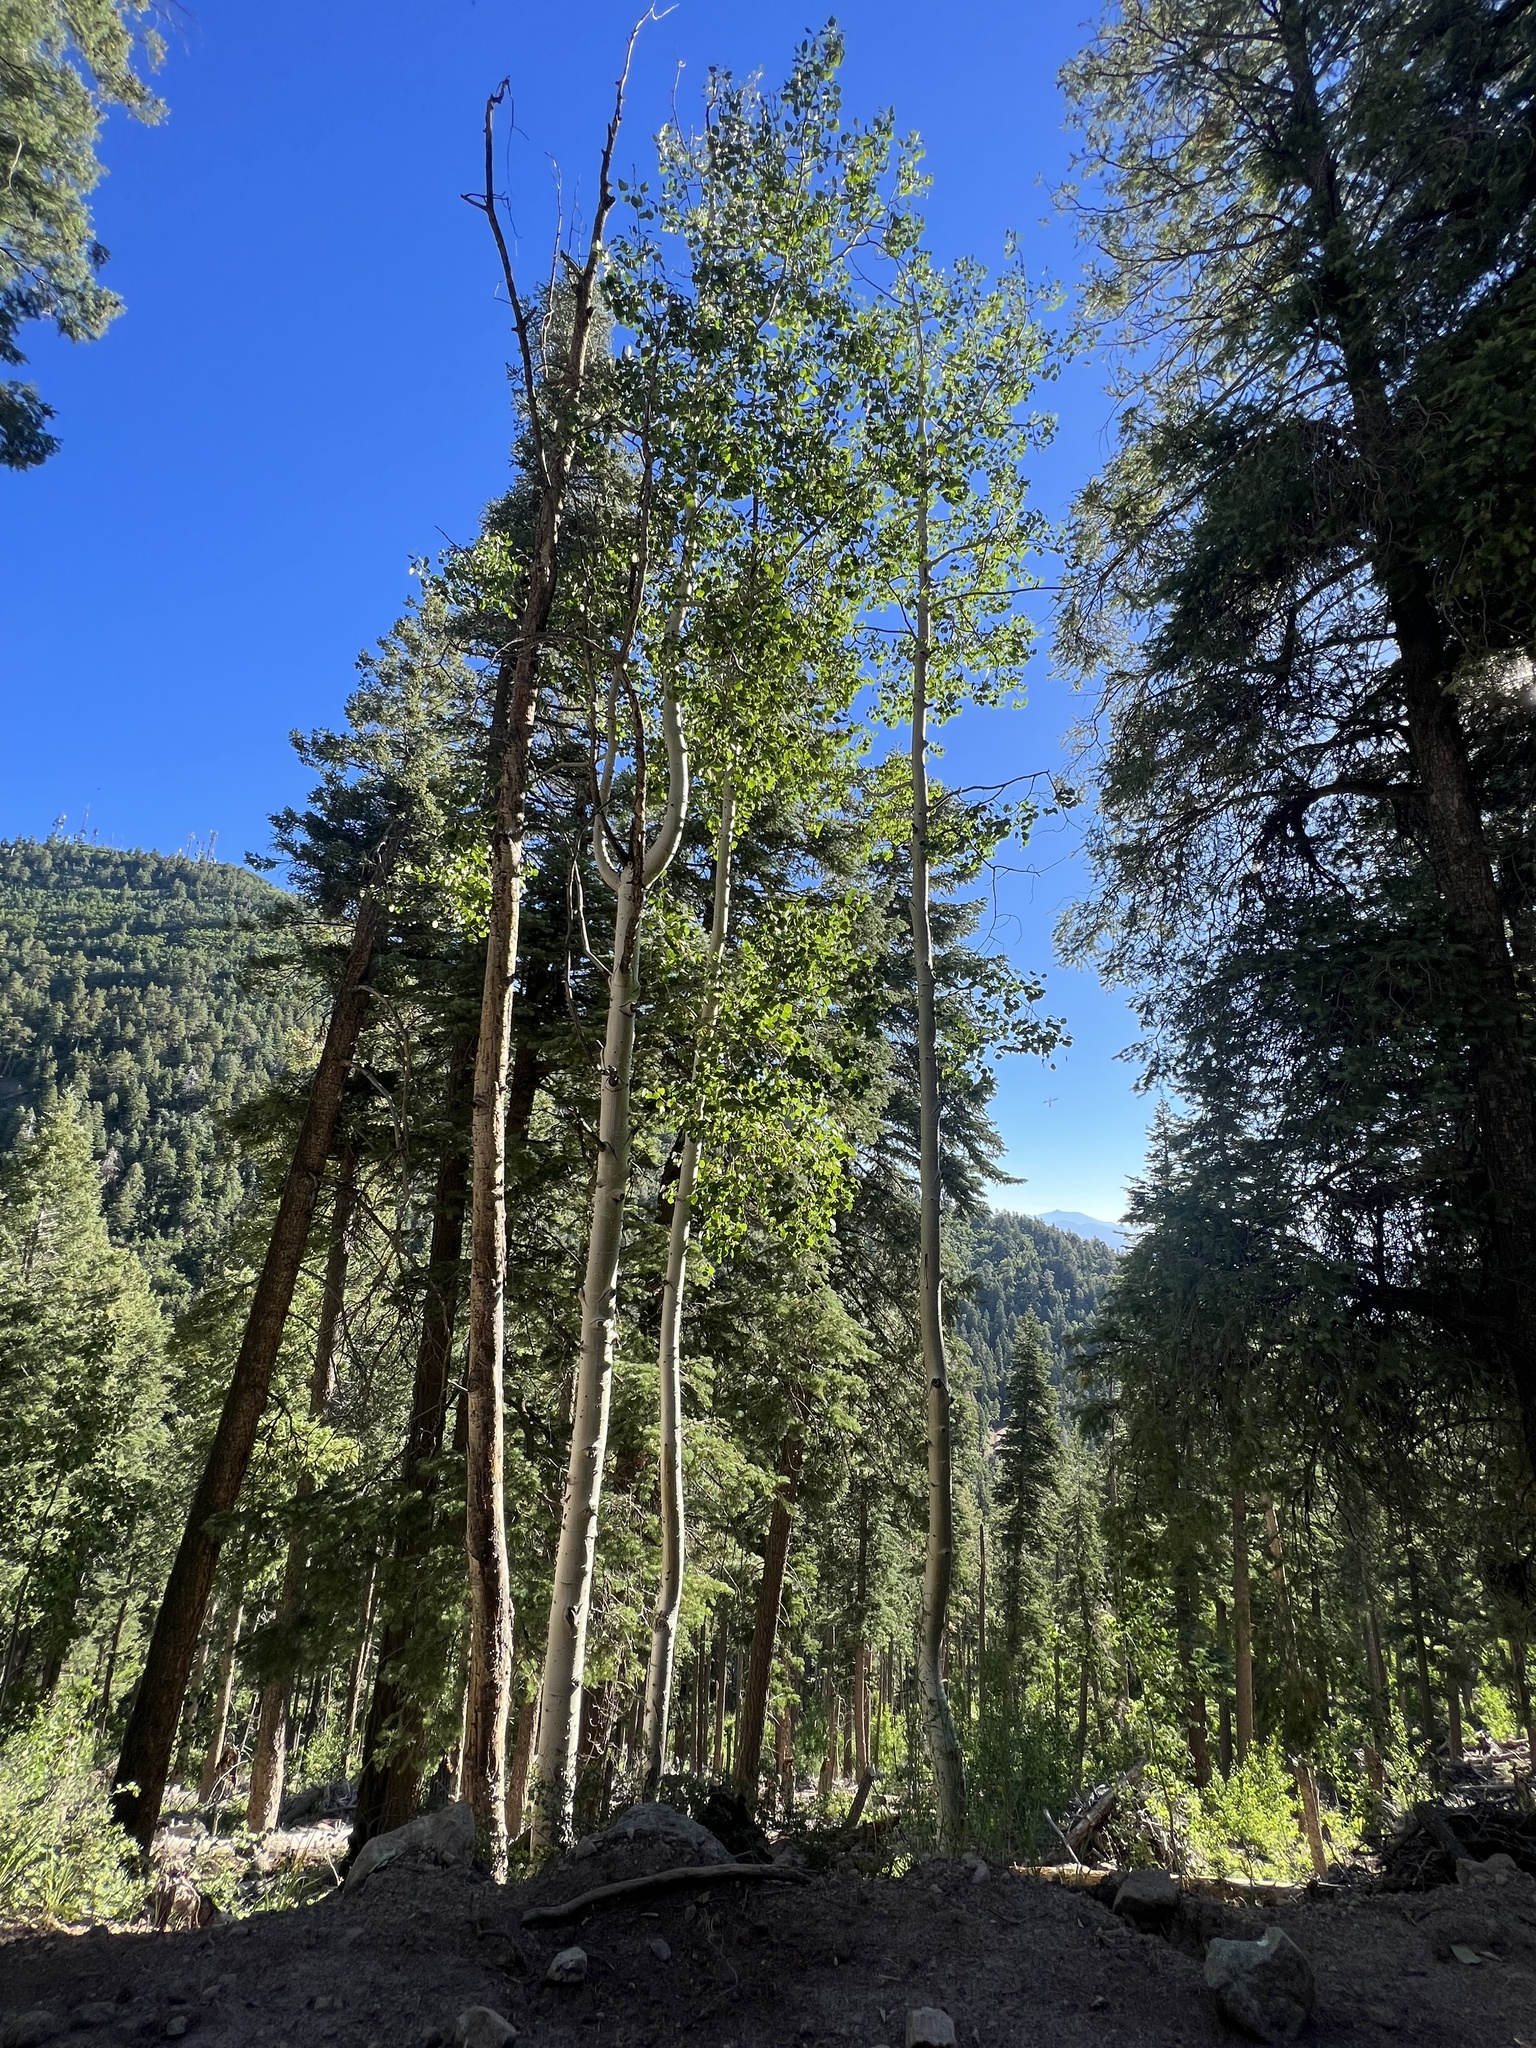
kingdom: Plantae
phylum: Tracheophyta
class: Magnoliopsida
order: Malpighiales
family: Salicaceae
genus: Populus
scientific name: Populus tremuloides
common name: Quaking aspen
